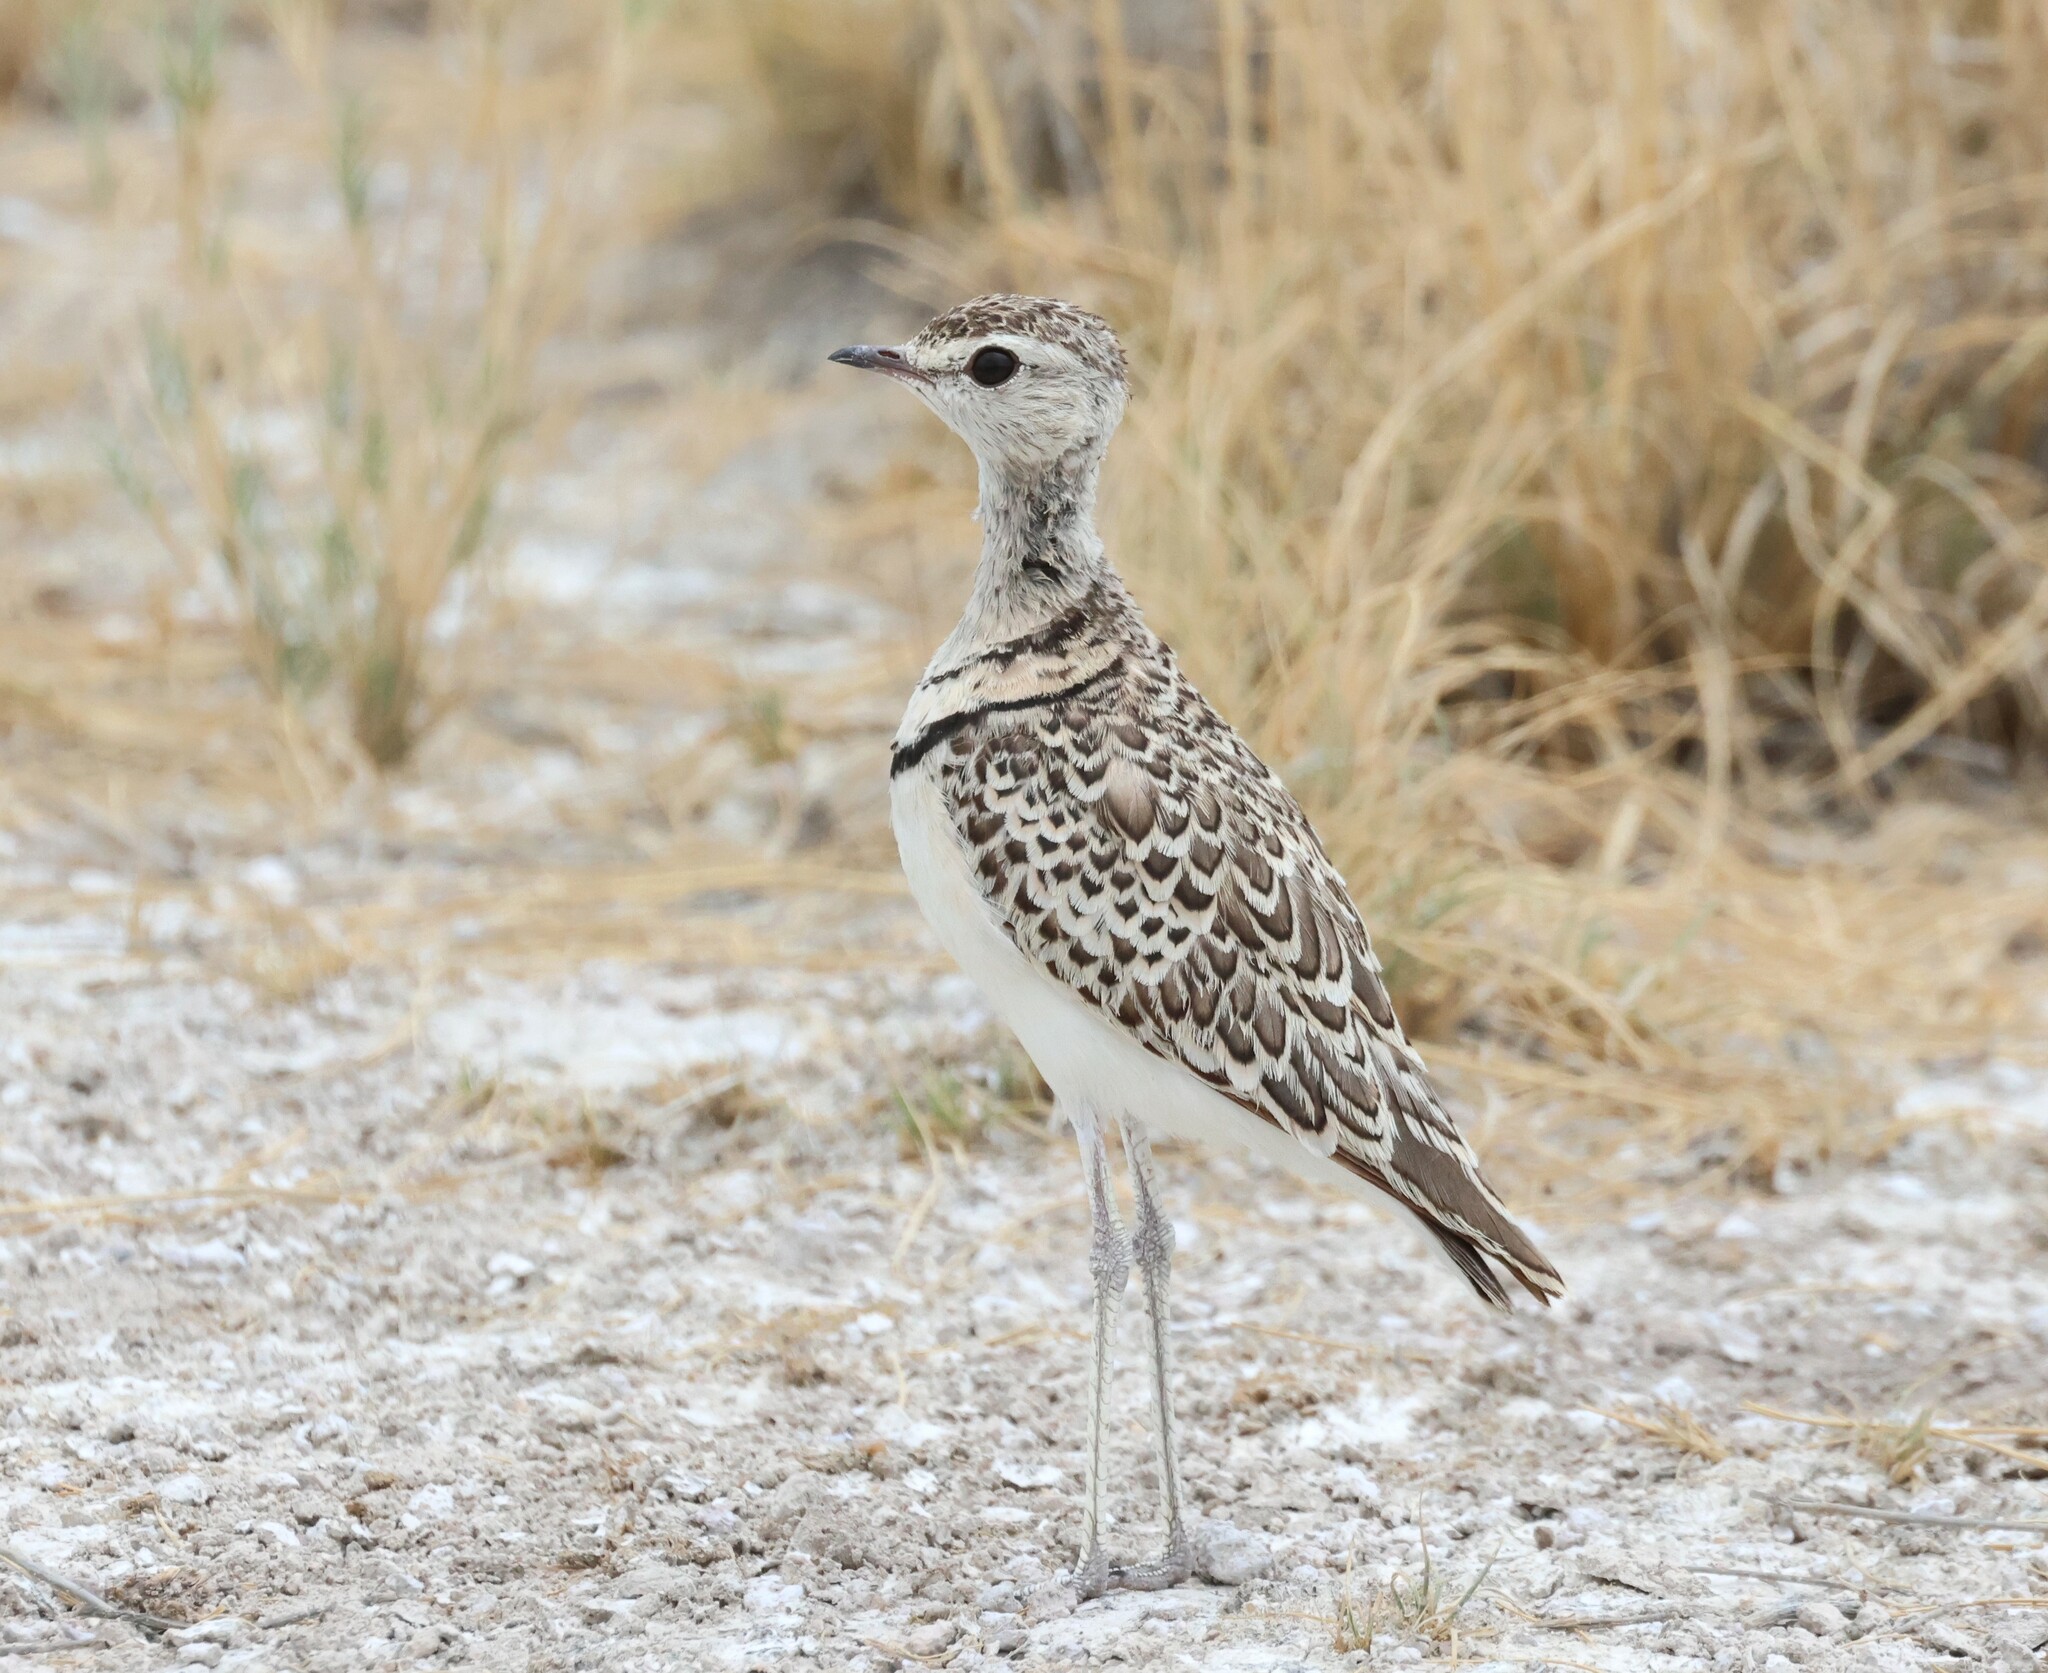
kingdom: Animalia
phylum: Chordata
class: Aves
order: Charadriiformes
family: Glareolidae
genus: Rhinoptilus
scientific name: Rhinoptilus africanus
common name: Double-banded courser
